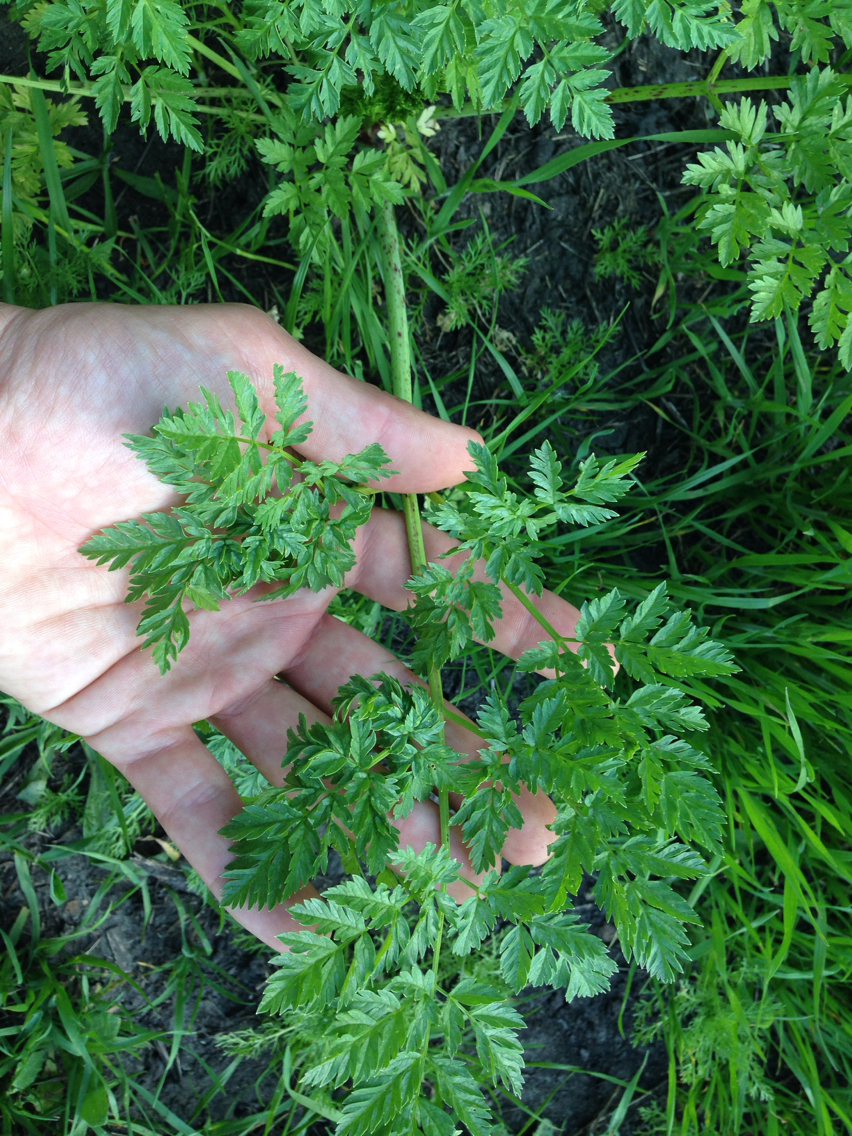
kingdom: Plantae
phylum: Tracheophyta
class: Magnoliopsida
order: Apiales
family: Apiaceae
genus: Conium
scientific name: Conium maculatum
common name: Hemlock
